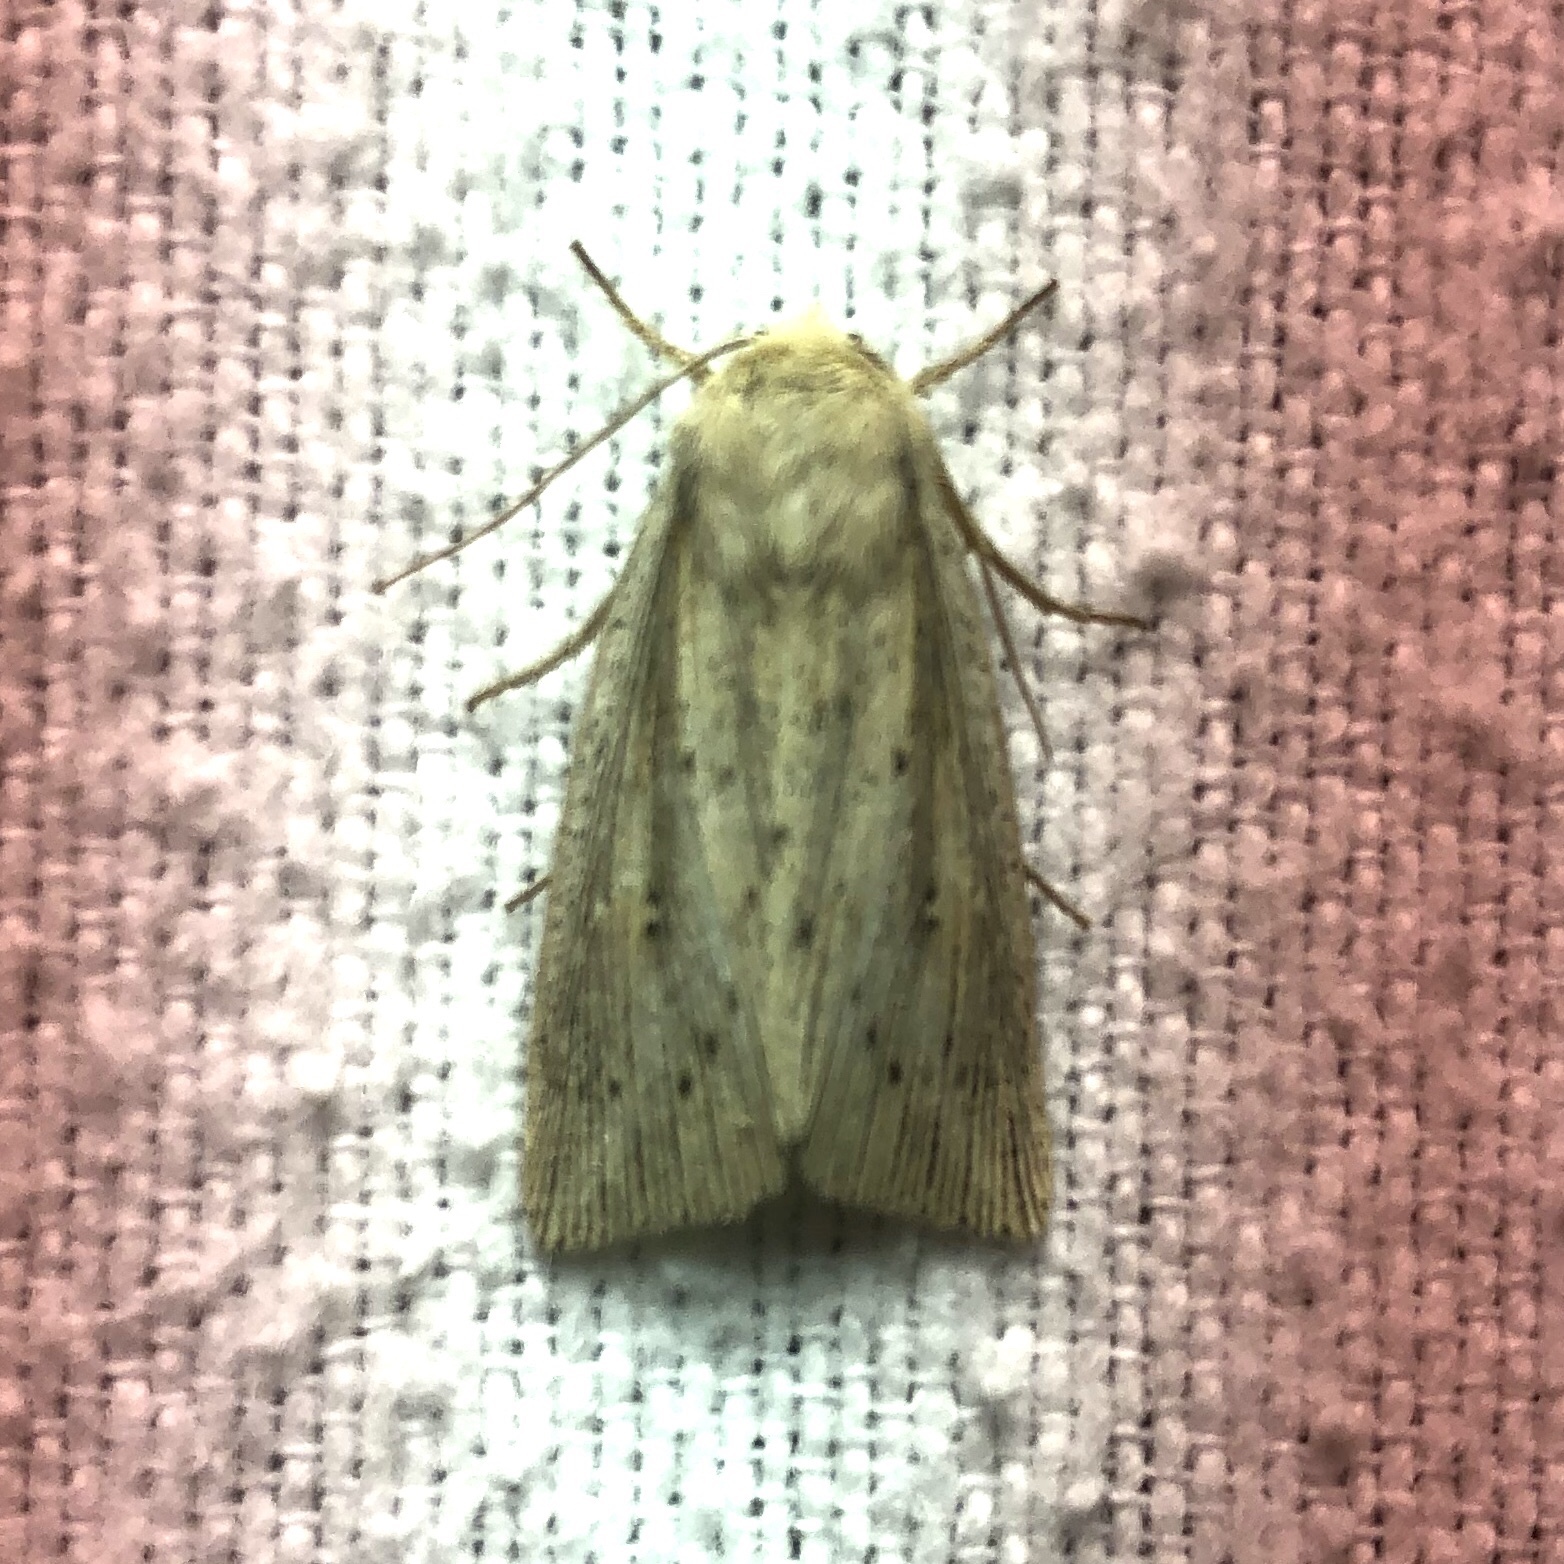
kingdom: Animalia
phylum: Arthropoda
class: Insecta
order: Lepidoptera
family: Noctuidae
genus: Leucania
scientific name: Leucania linita
